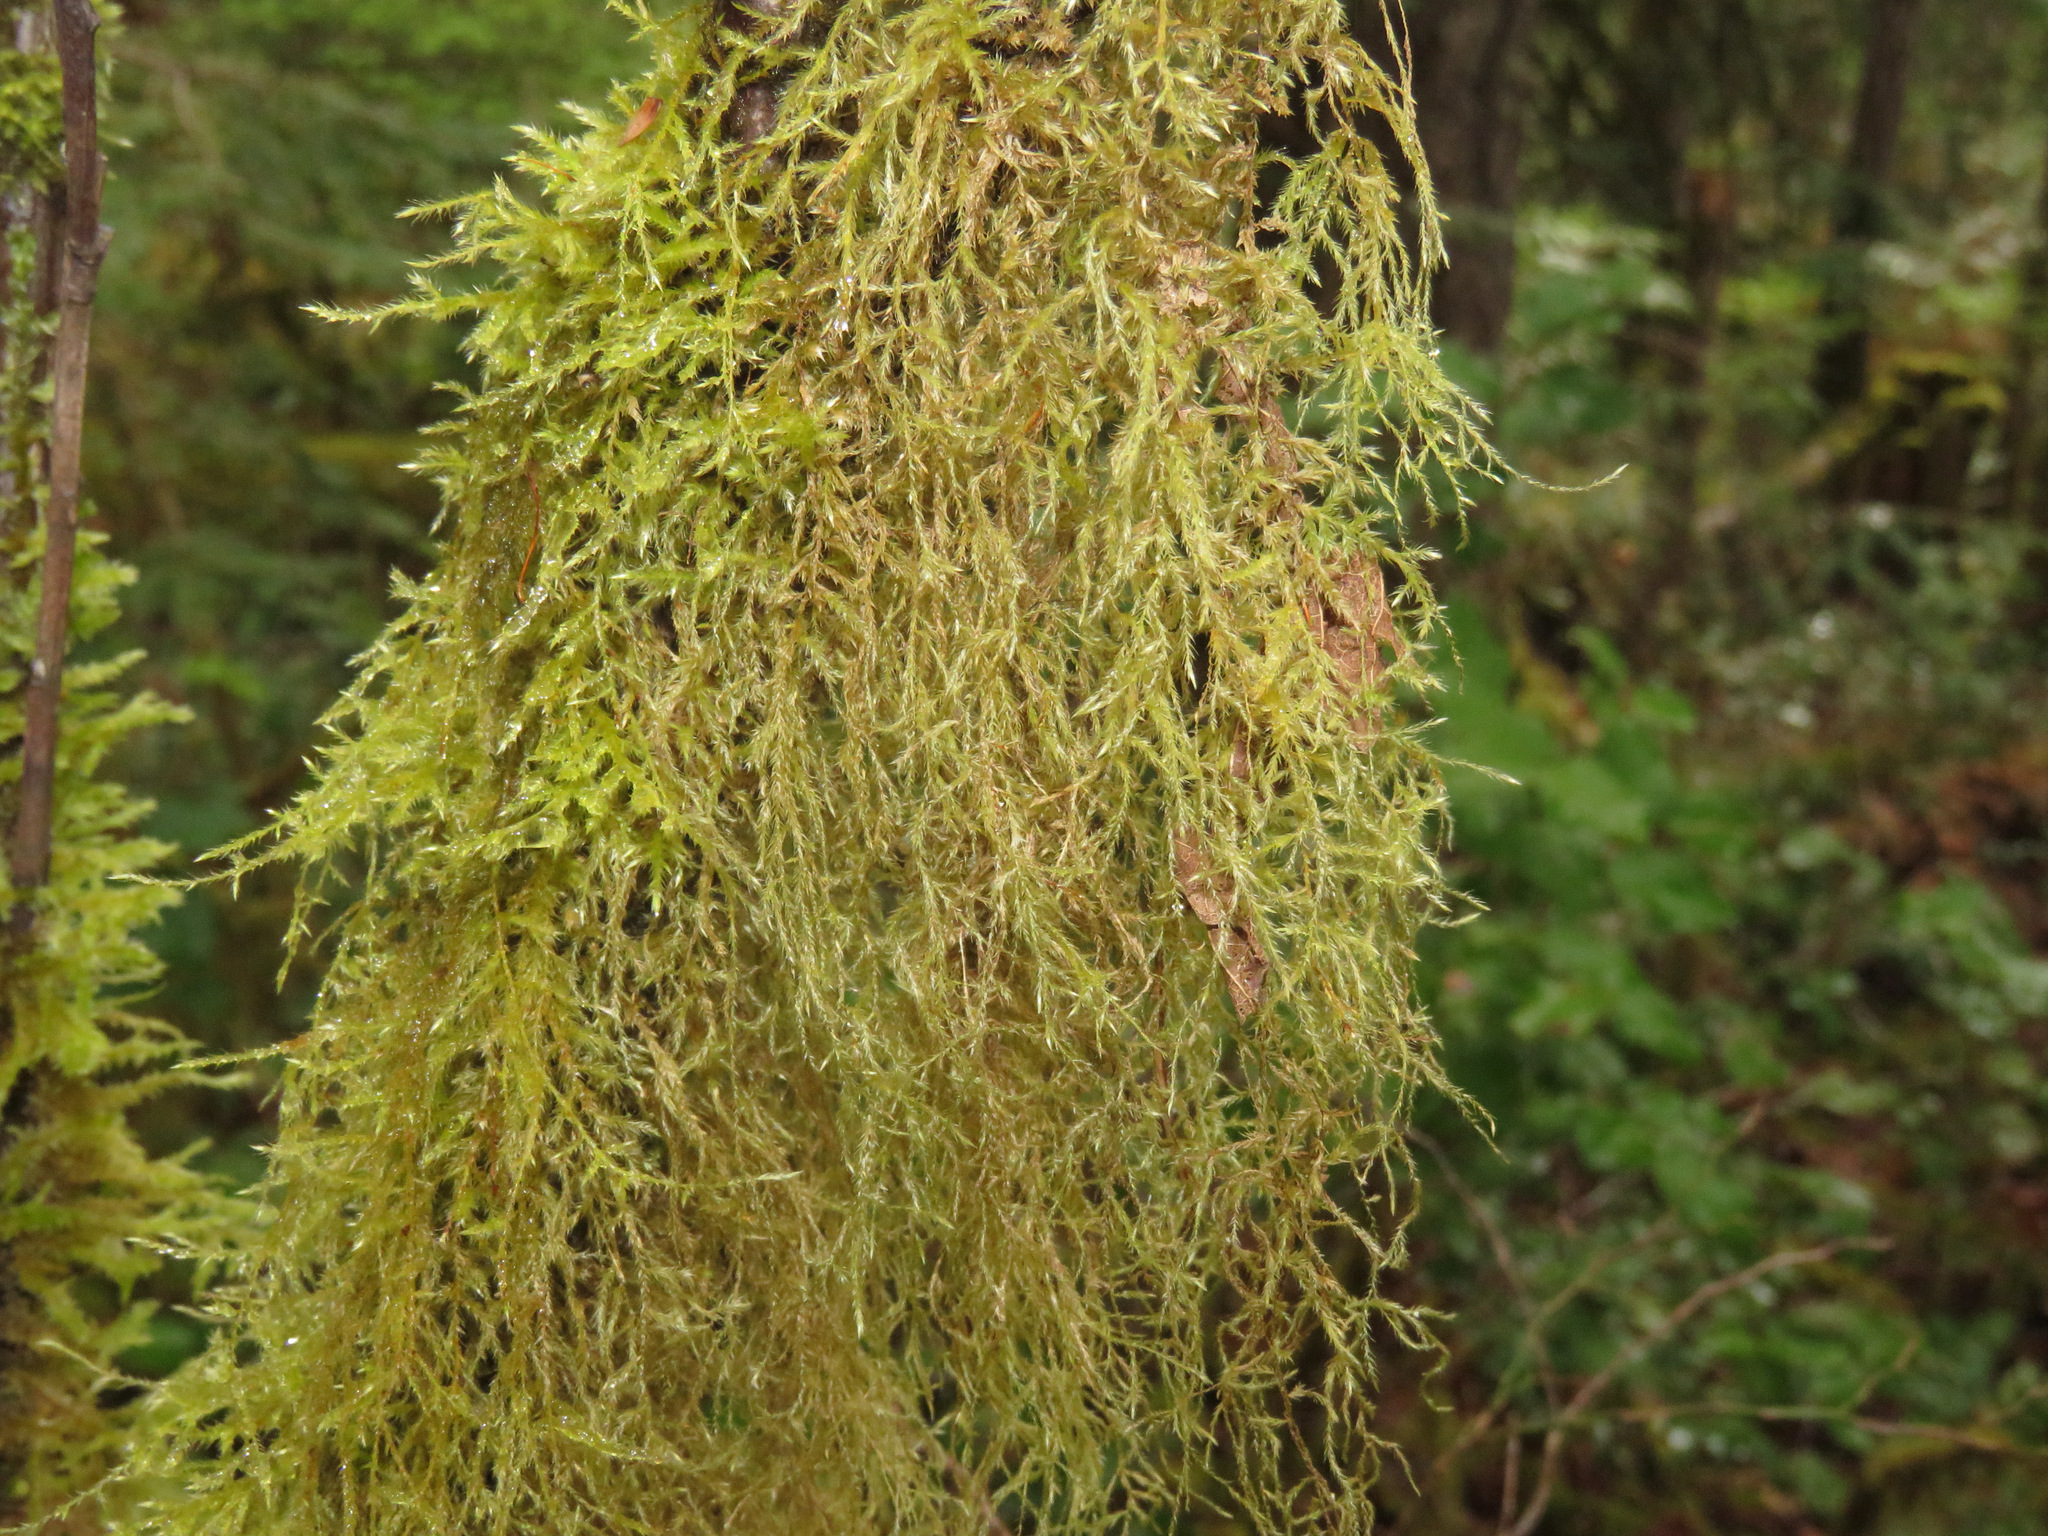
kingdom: Plantae
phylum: Bryophyta
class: Bryopsida
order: Hypnales
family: Lembophyllaceae
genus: Pseudisothecium
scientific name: Pseudisothecium stoloniferum
